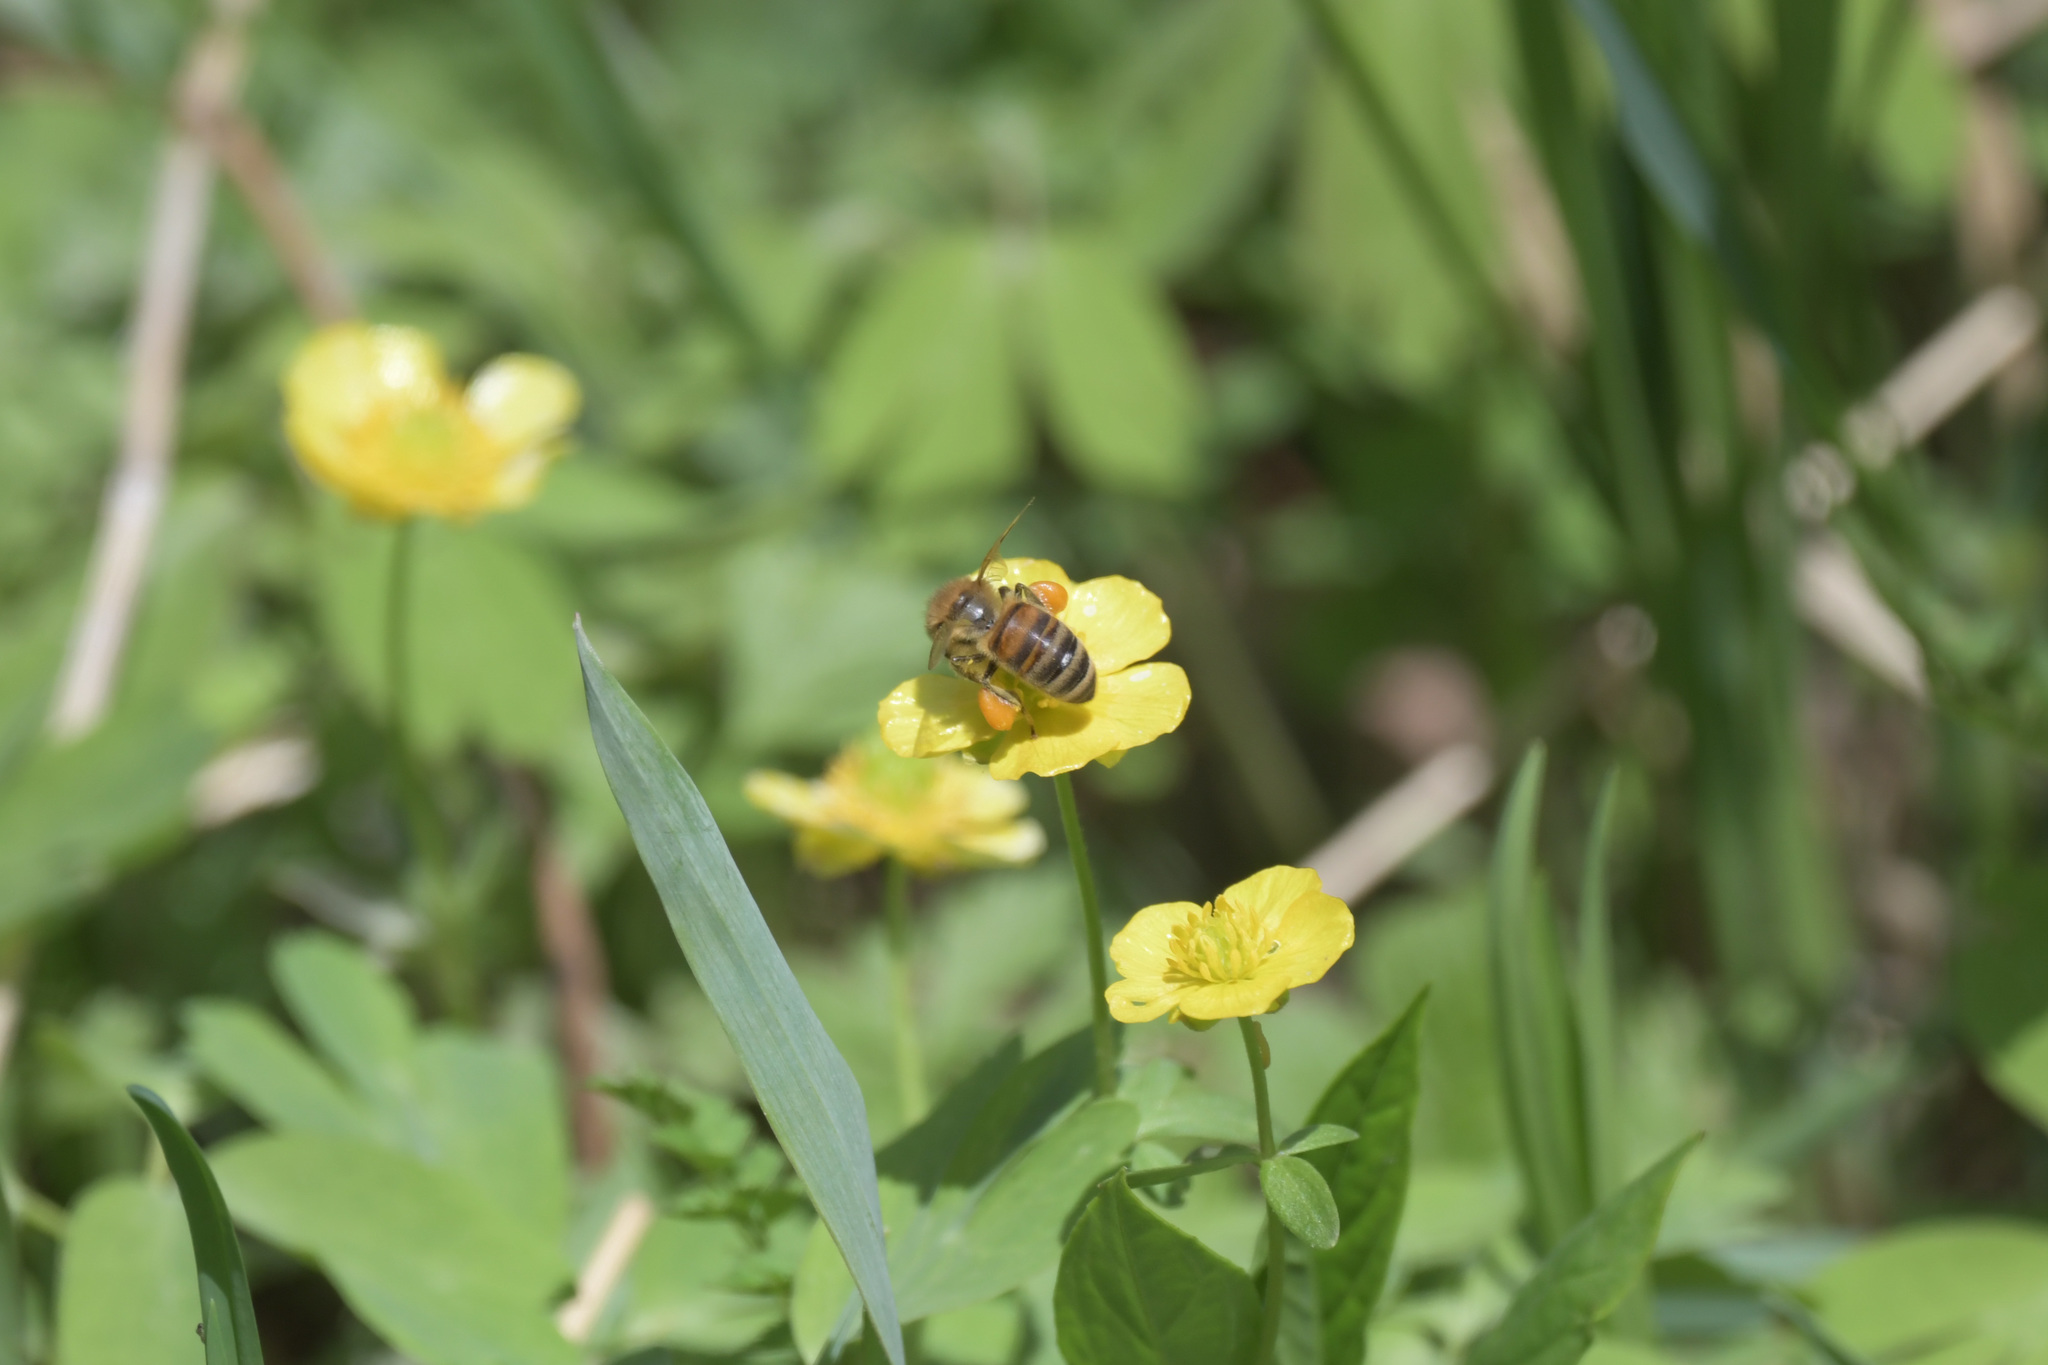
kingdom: Animalia
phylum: Arthropoda
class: Insecta
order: Hymenoptera
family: Apidae
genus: Apis
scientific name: Apis mellifera
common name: Honey bee
